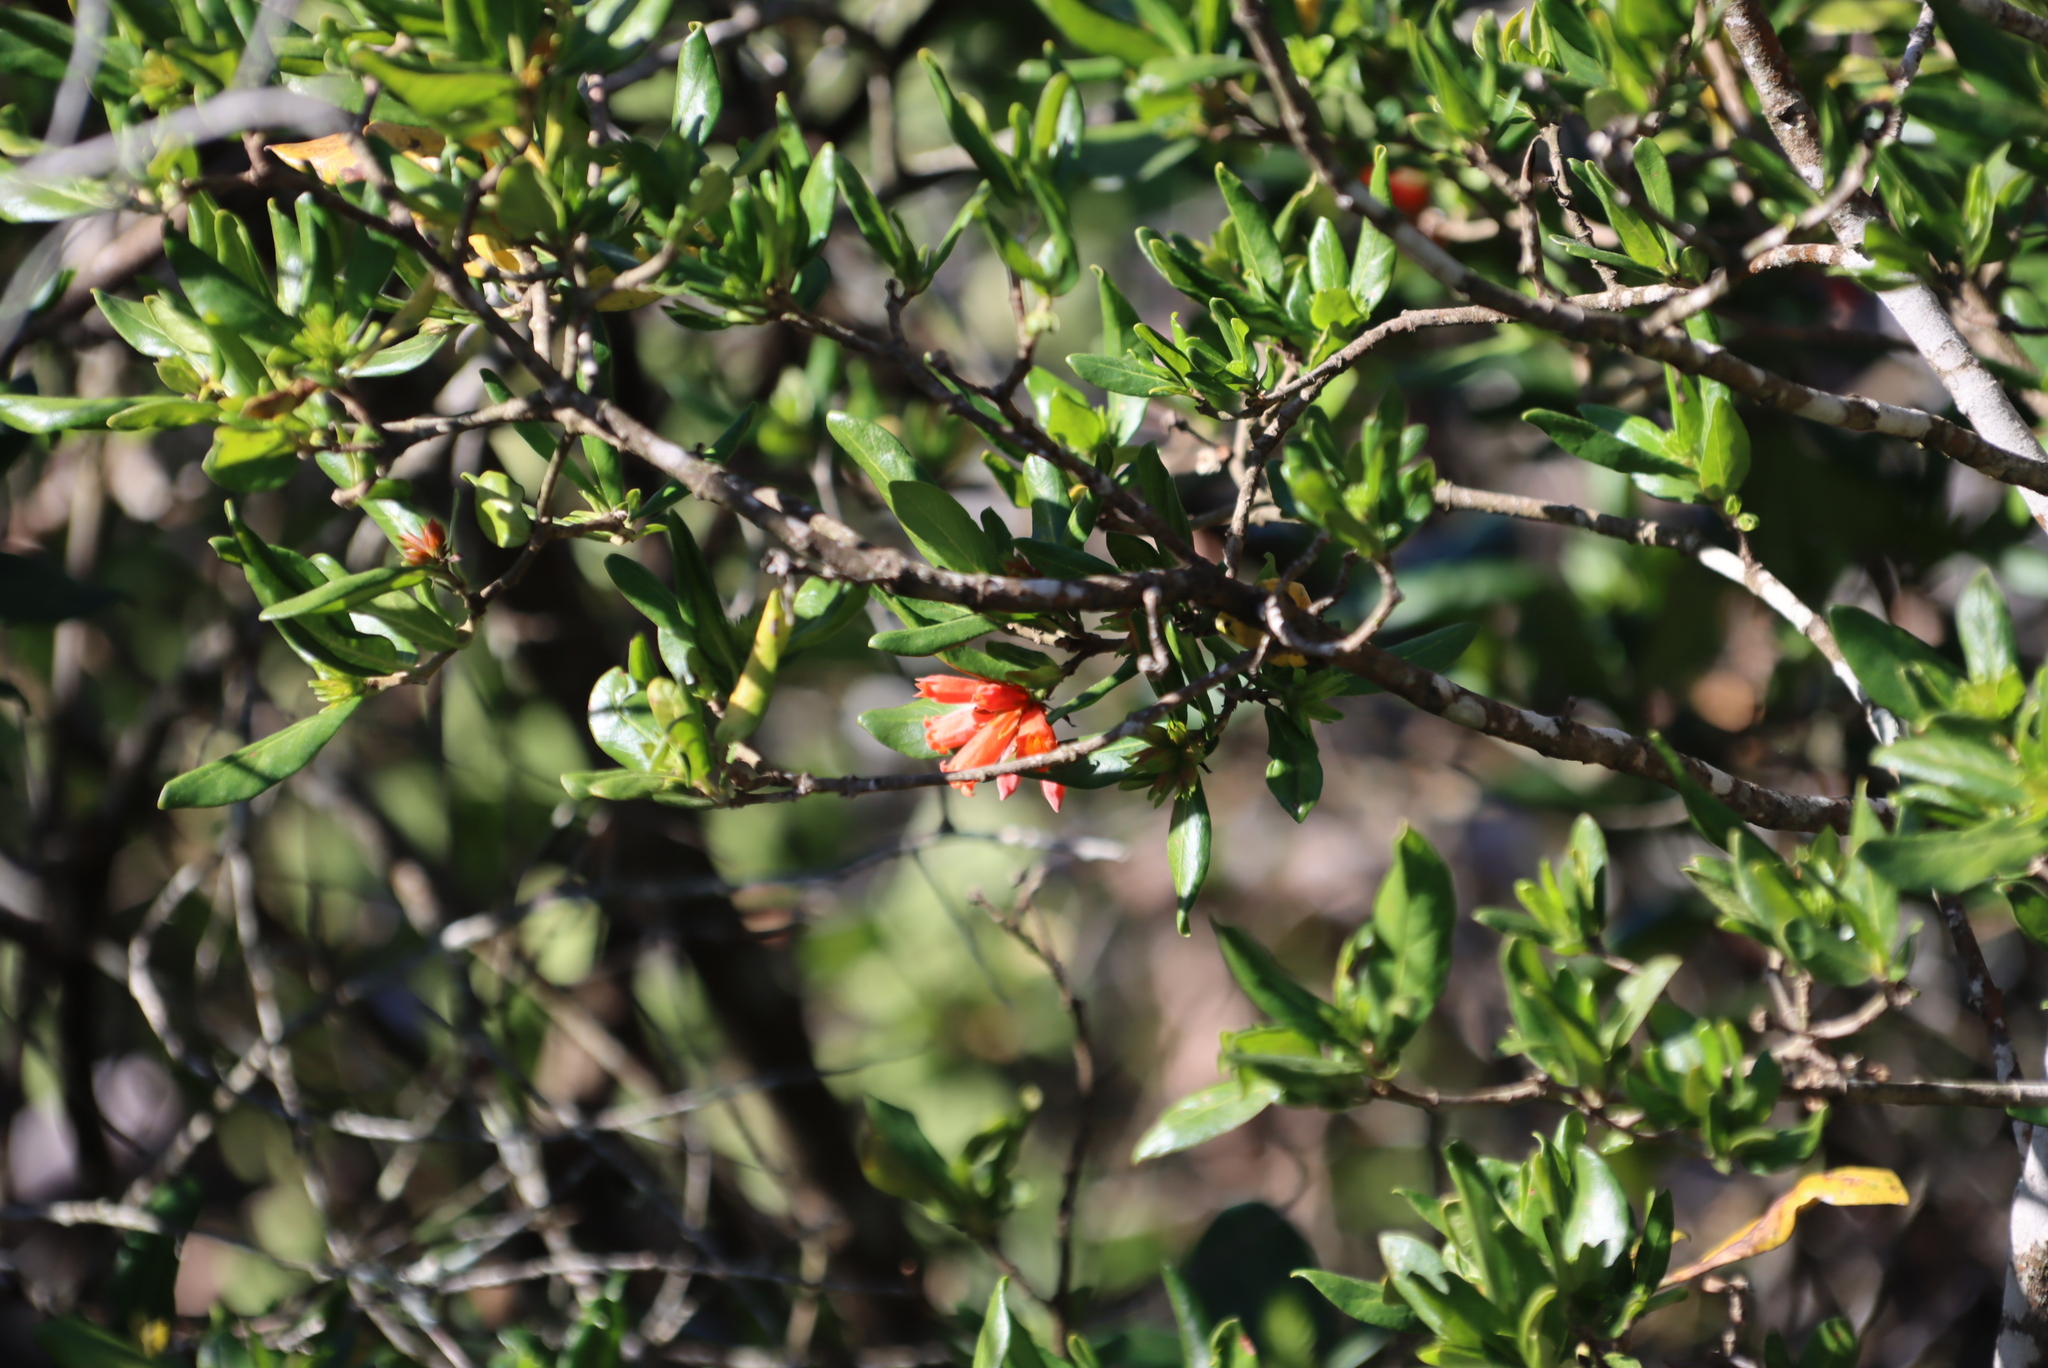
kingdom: Plantae
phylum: Tracheophyta
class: Magnoliopsida
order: Gentianales
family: Rubiaceae
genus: Burchellia
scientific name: Burchellia bubalina
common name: Wild pomegranate
